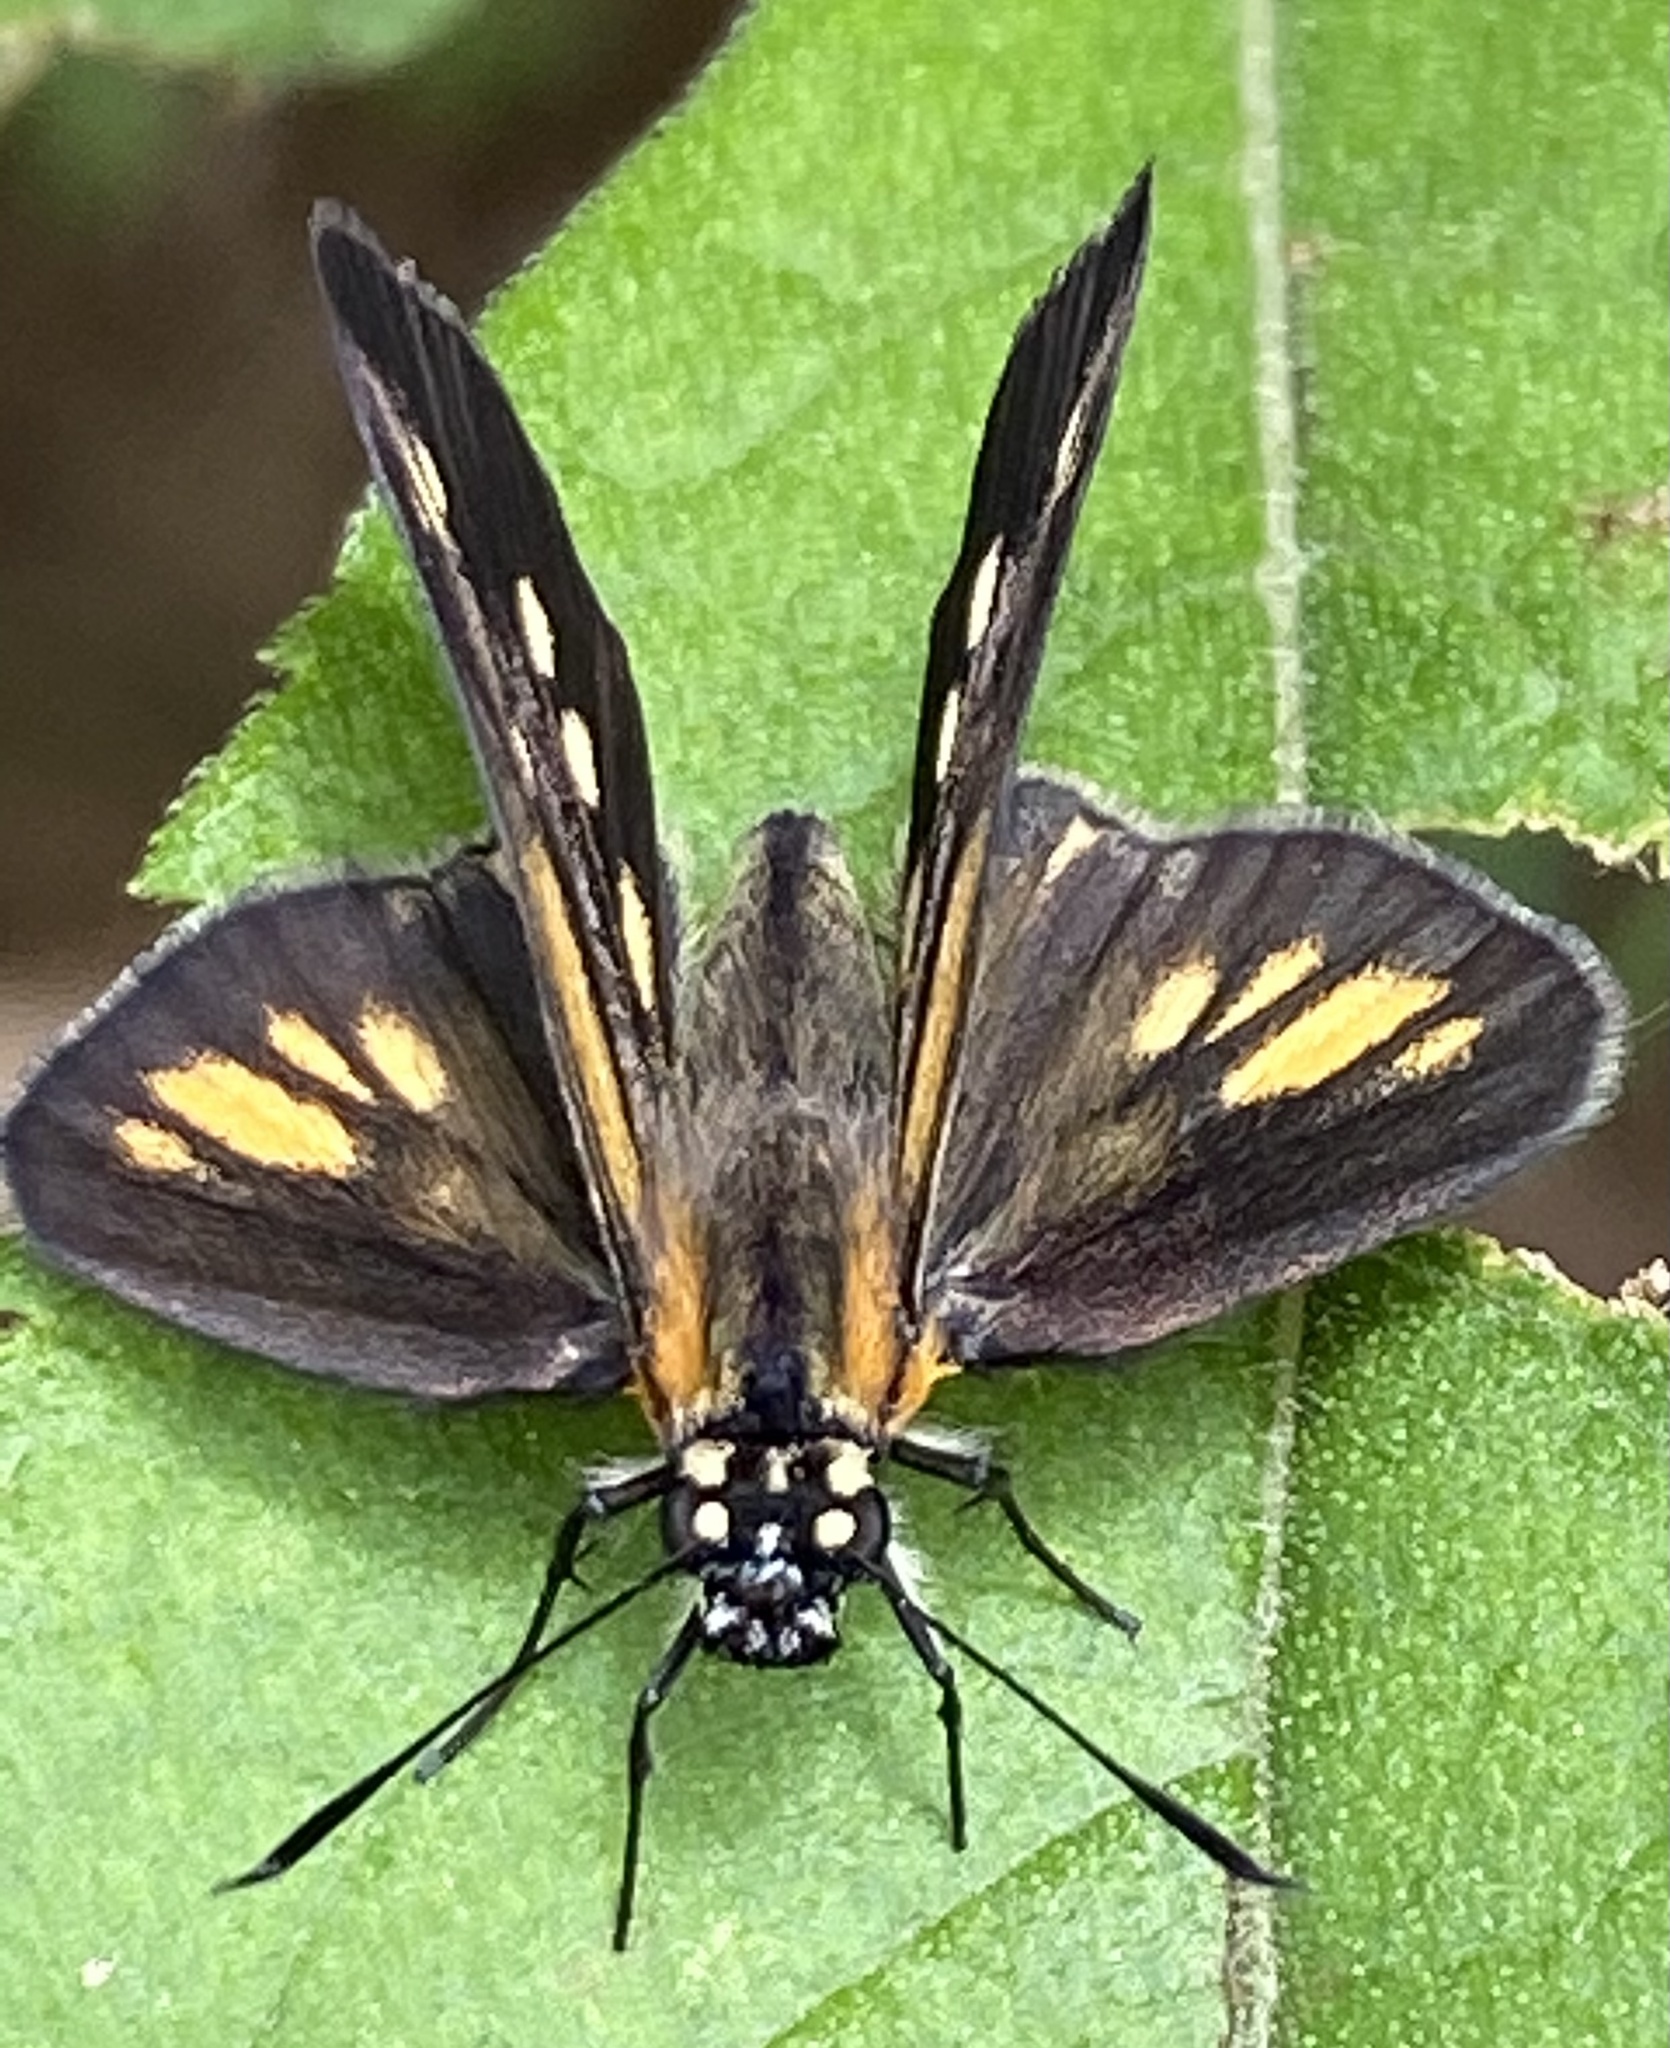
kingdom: Animalia
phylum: Arthropoda
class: Insecta
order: Lepidoptera
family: Hesperiidae
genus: Vehilius
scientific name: Vehilius clavicula
